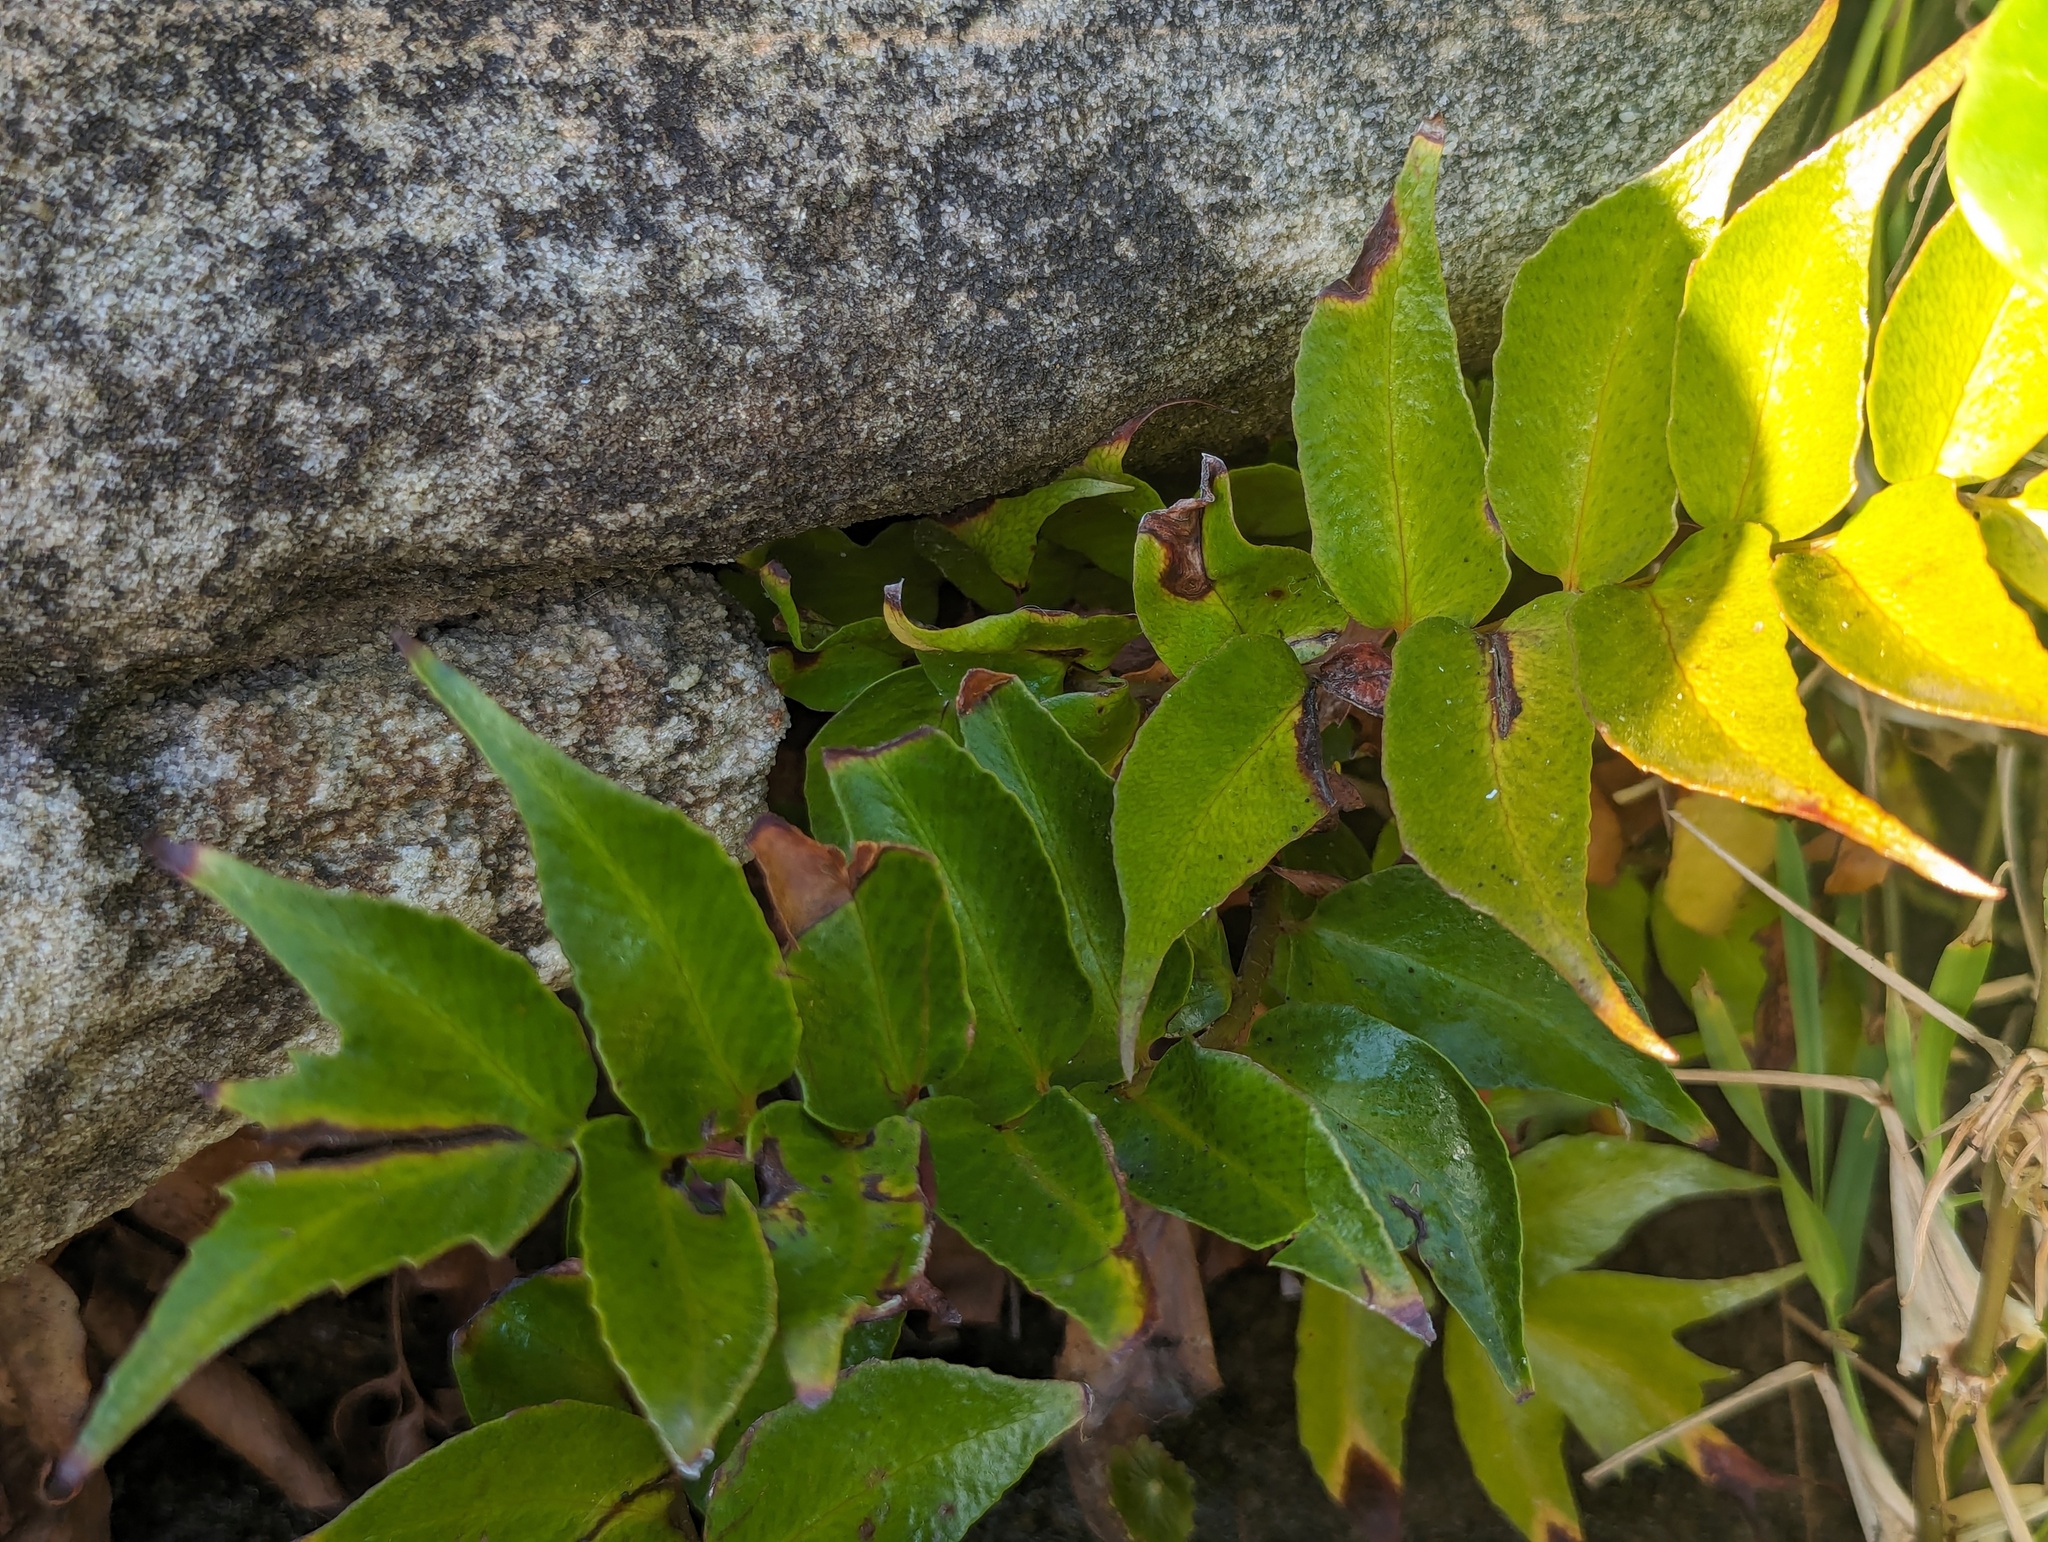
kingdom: Plantae
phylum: Tracheophyta
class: Polypodiopsida
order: Polypodiales
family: Dryopteridaceae
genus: Cyrtomium
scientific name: Cyrtomium falcatum
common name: House holly-fern
